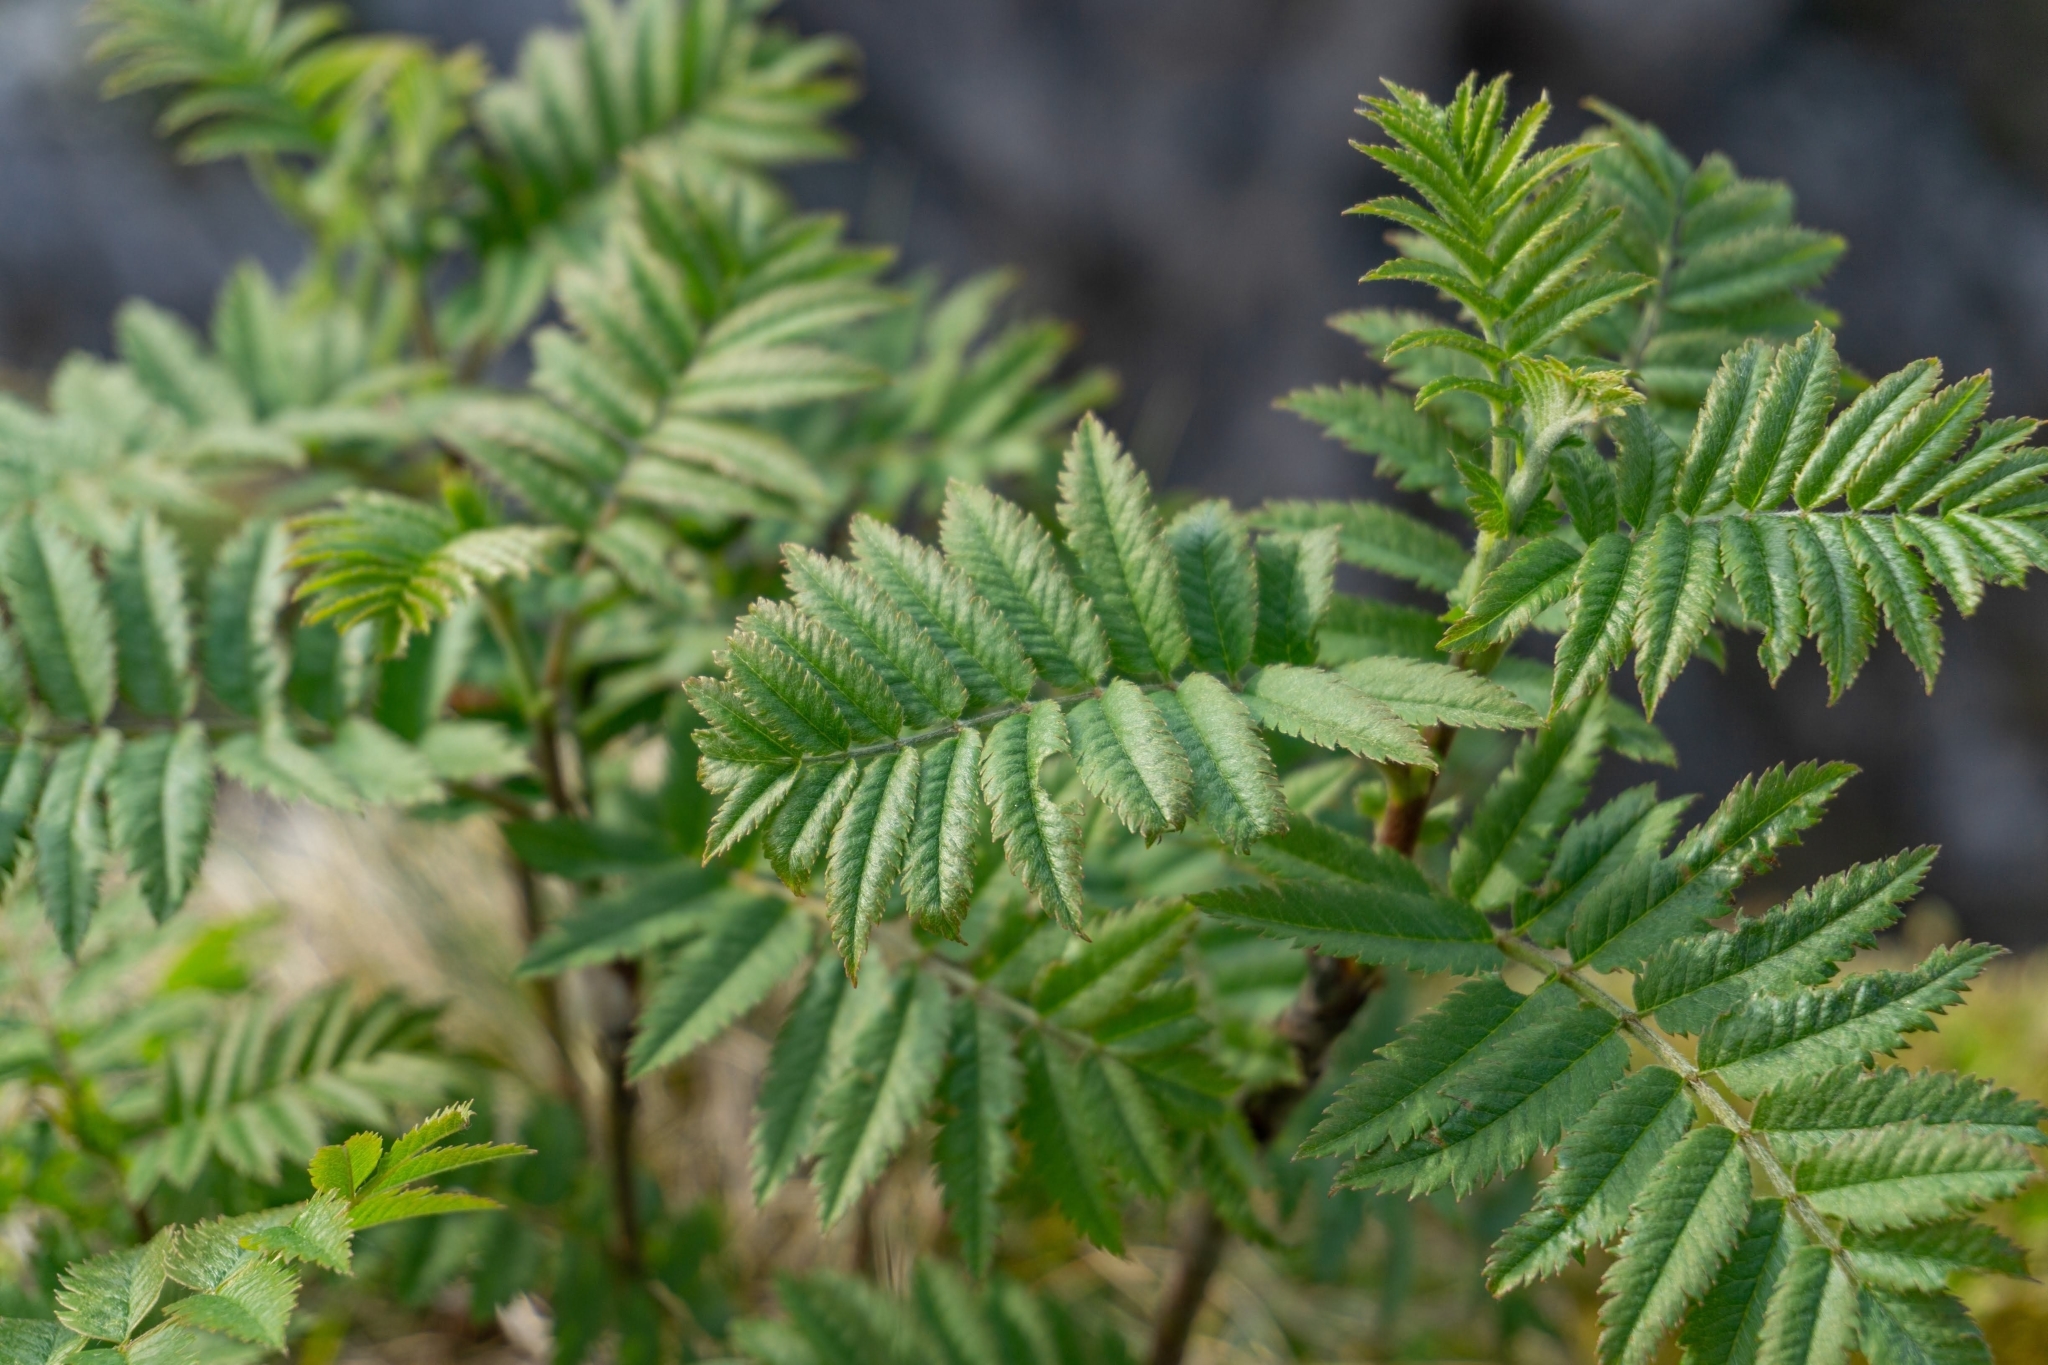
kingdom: Plantae
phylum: Tracheophyta
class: Magnoliopsida
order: Rosales
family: Rosaceae
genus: Sorbus
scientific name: Sorbus aucuparia
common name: Rowan
